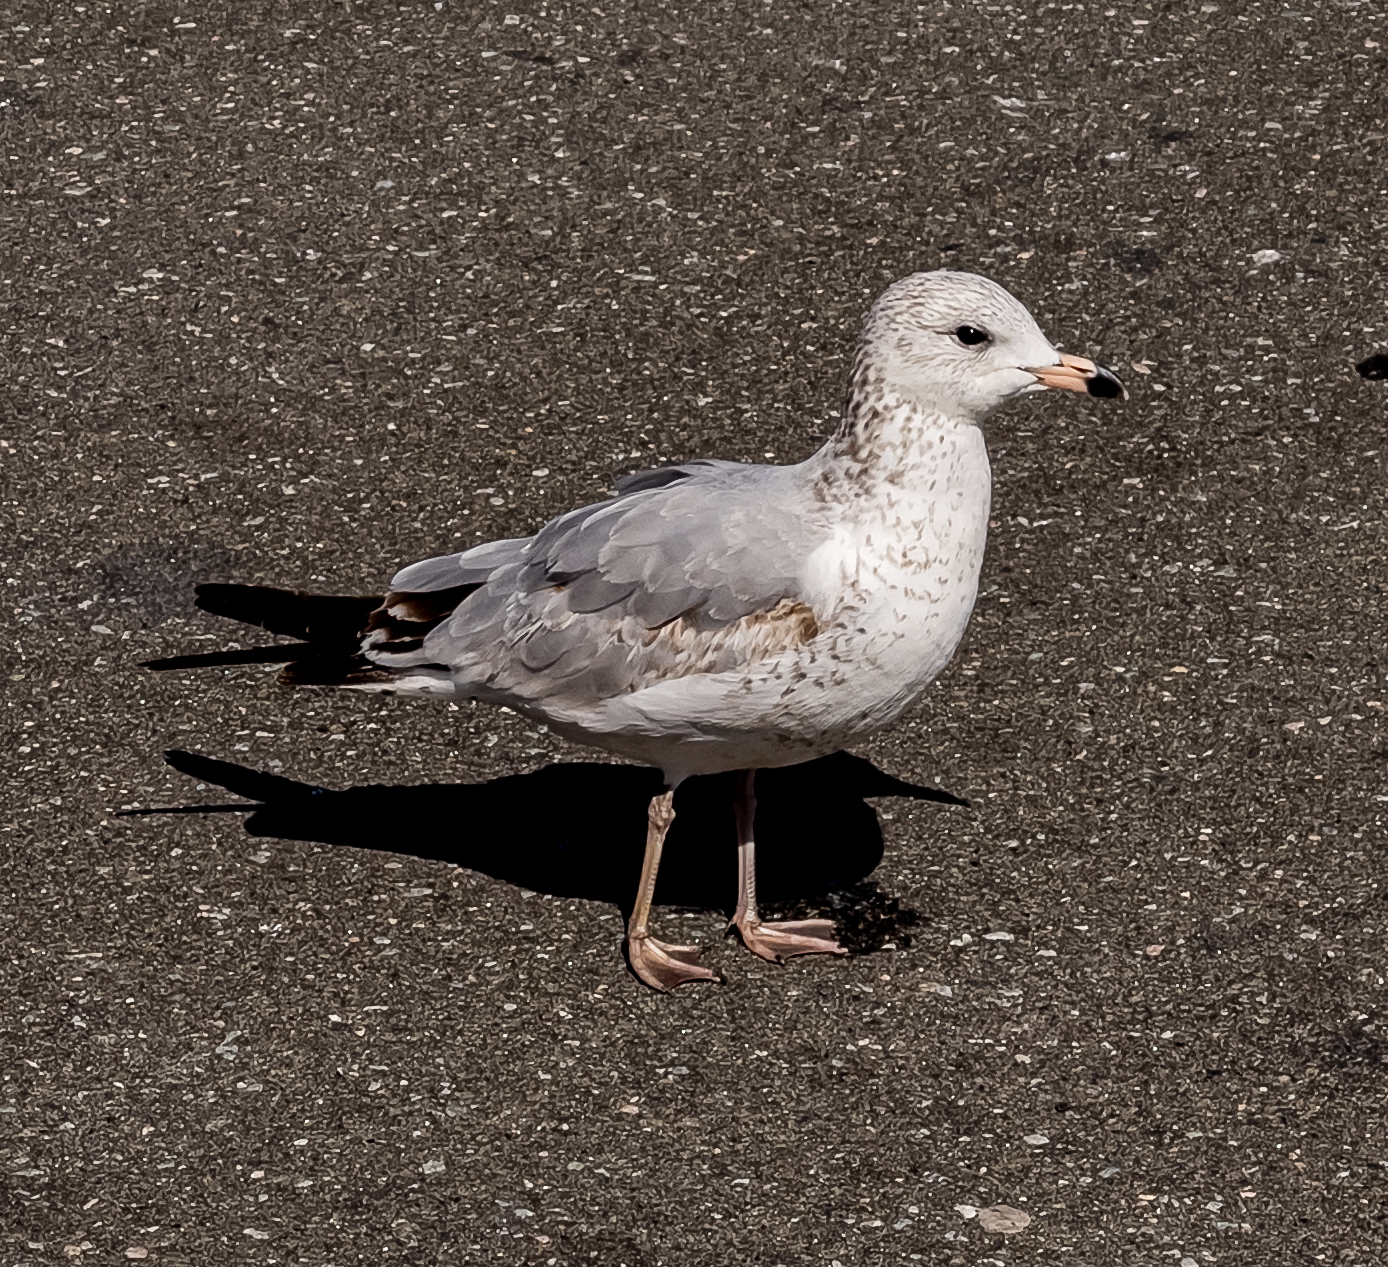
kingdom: Animalia
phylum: Chordata
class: Aves
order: Charadriiformes
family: Laridae
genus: Larus
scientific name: Larus delawarensis
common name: Ring-billed gull
